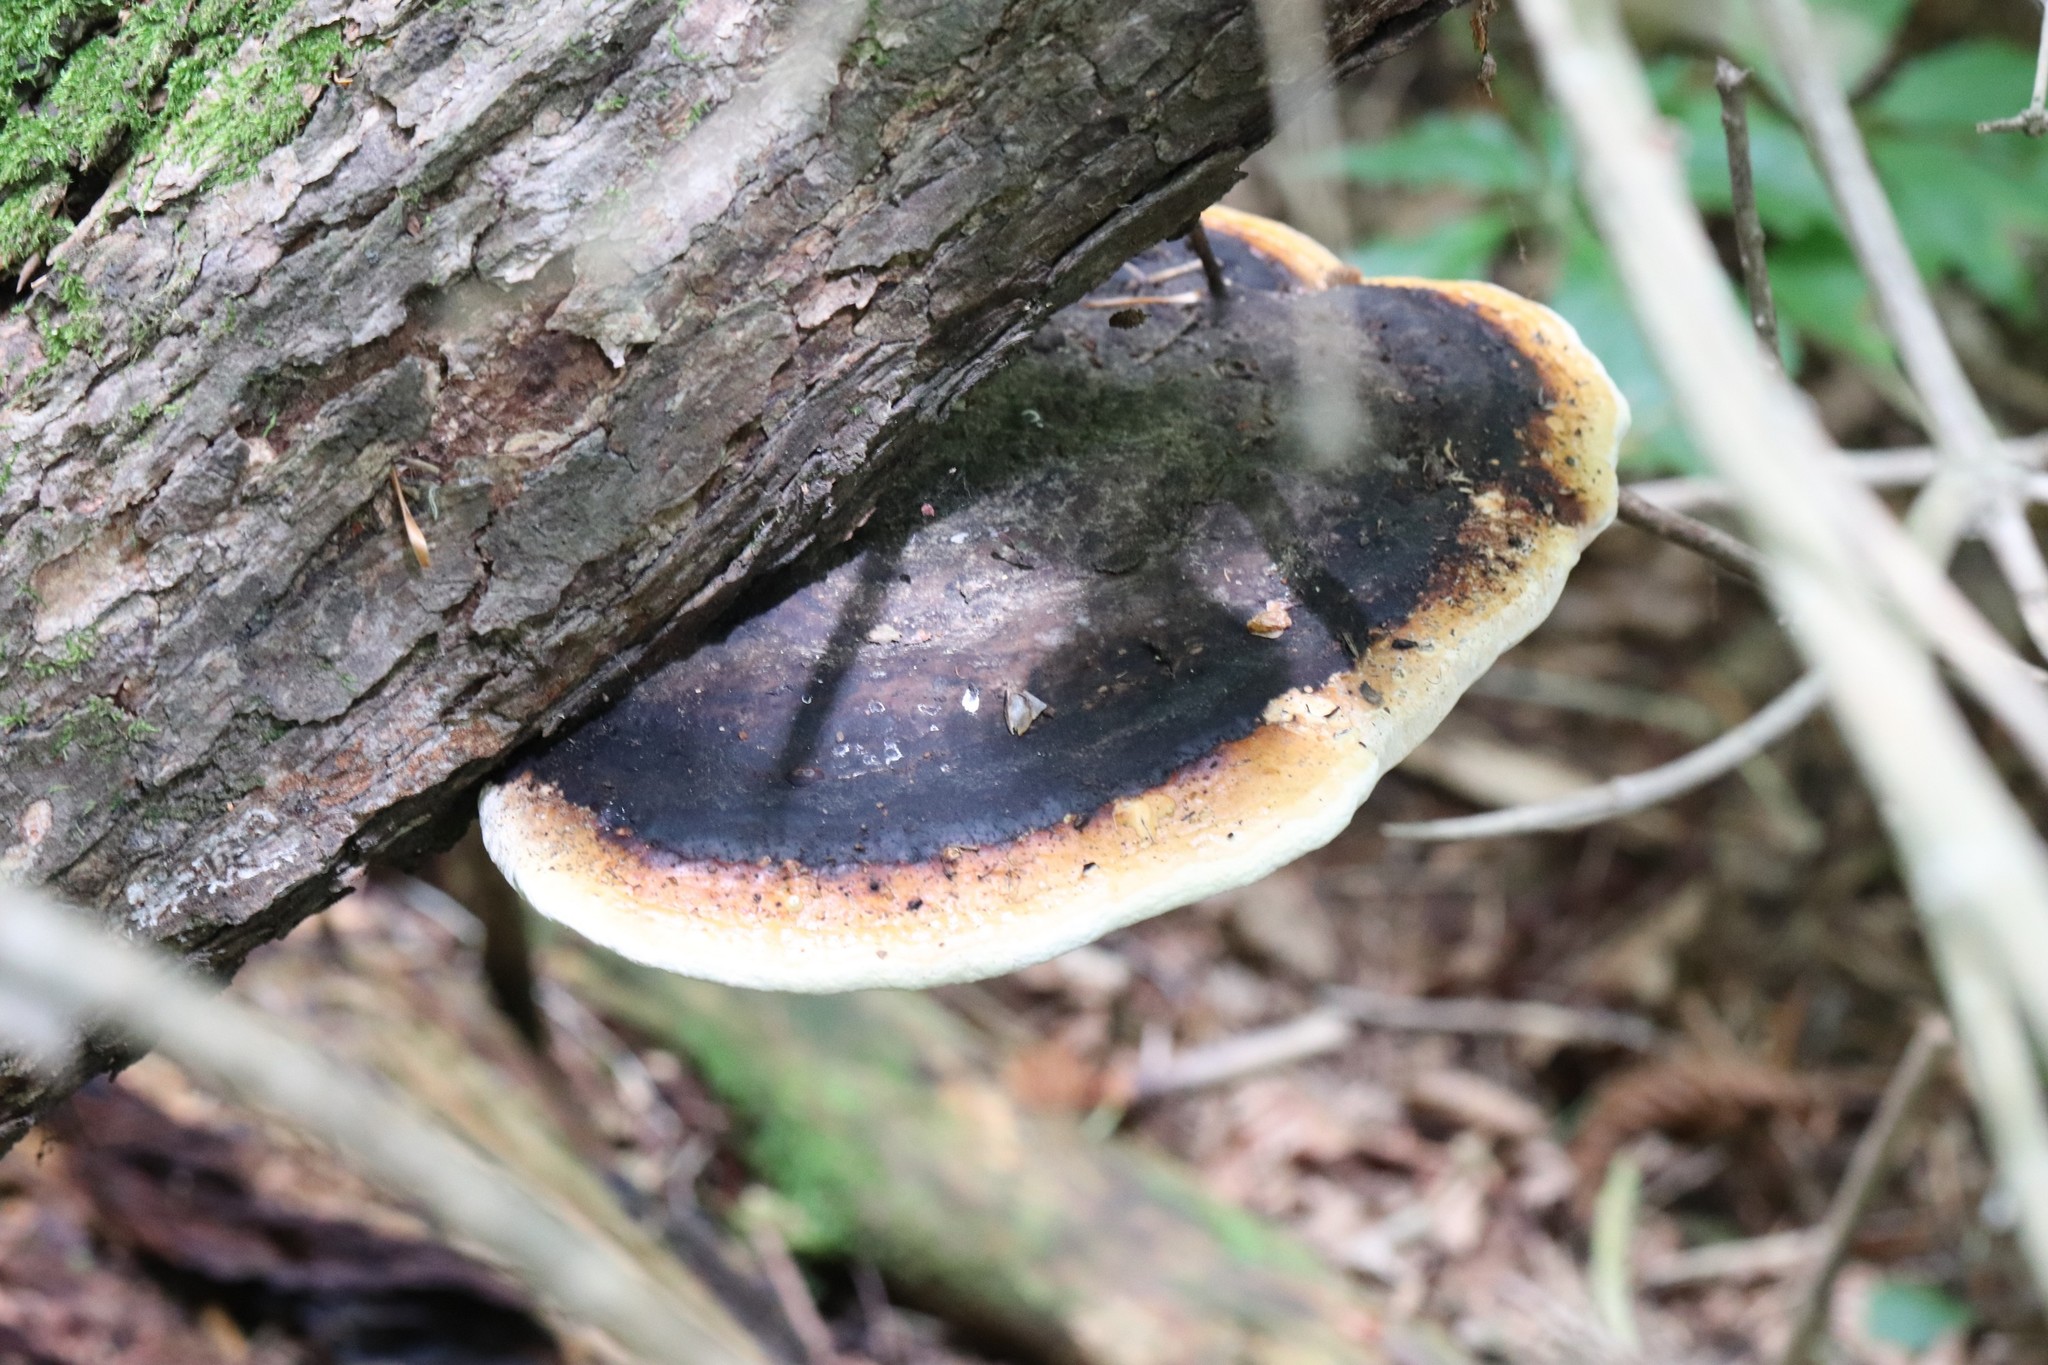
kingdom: Fungi
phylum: Basidiomycota
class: Agaricomycetes
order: Polyporales
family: Fomitopsidaceae
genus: Fomitopsis
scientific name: Fomitopsis pinicola
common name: Red-belted bracket
